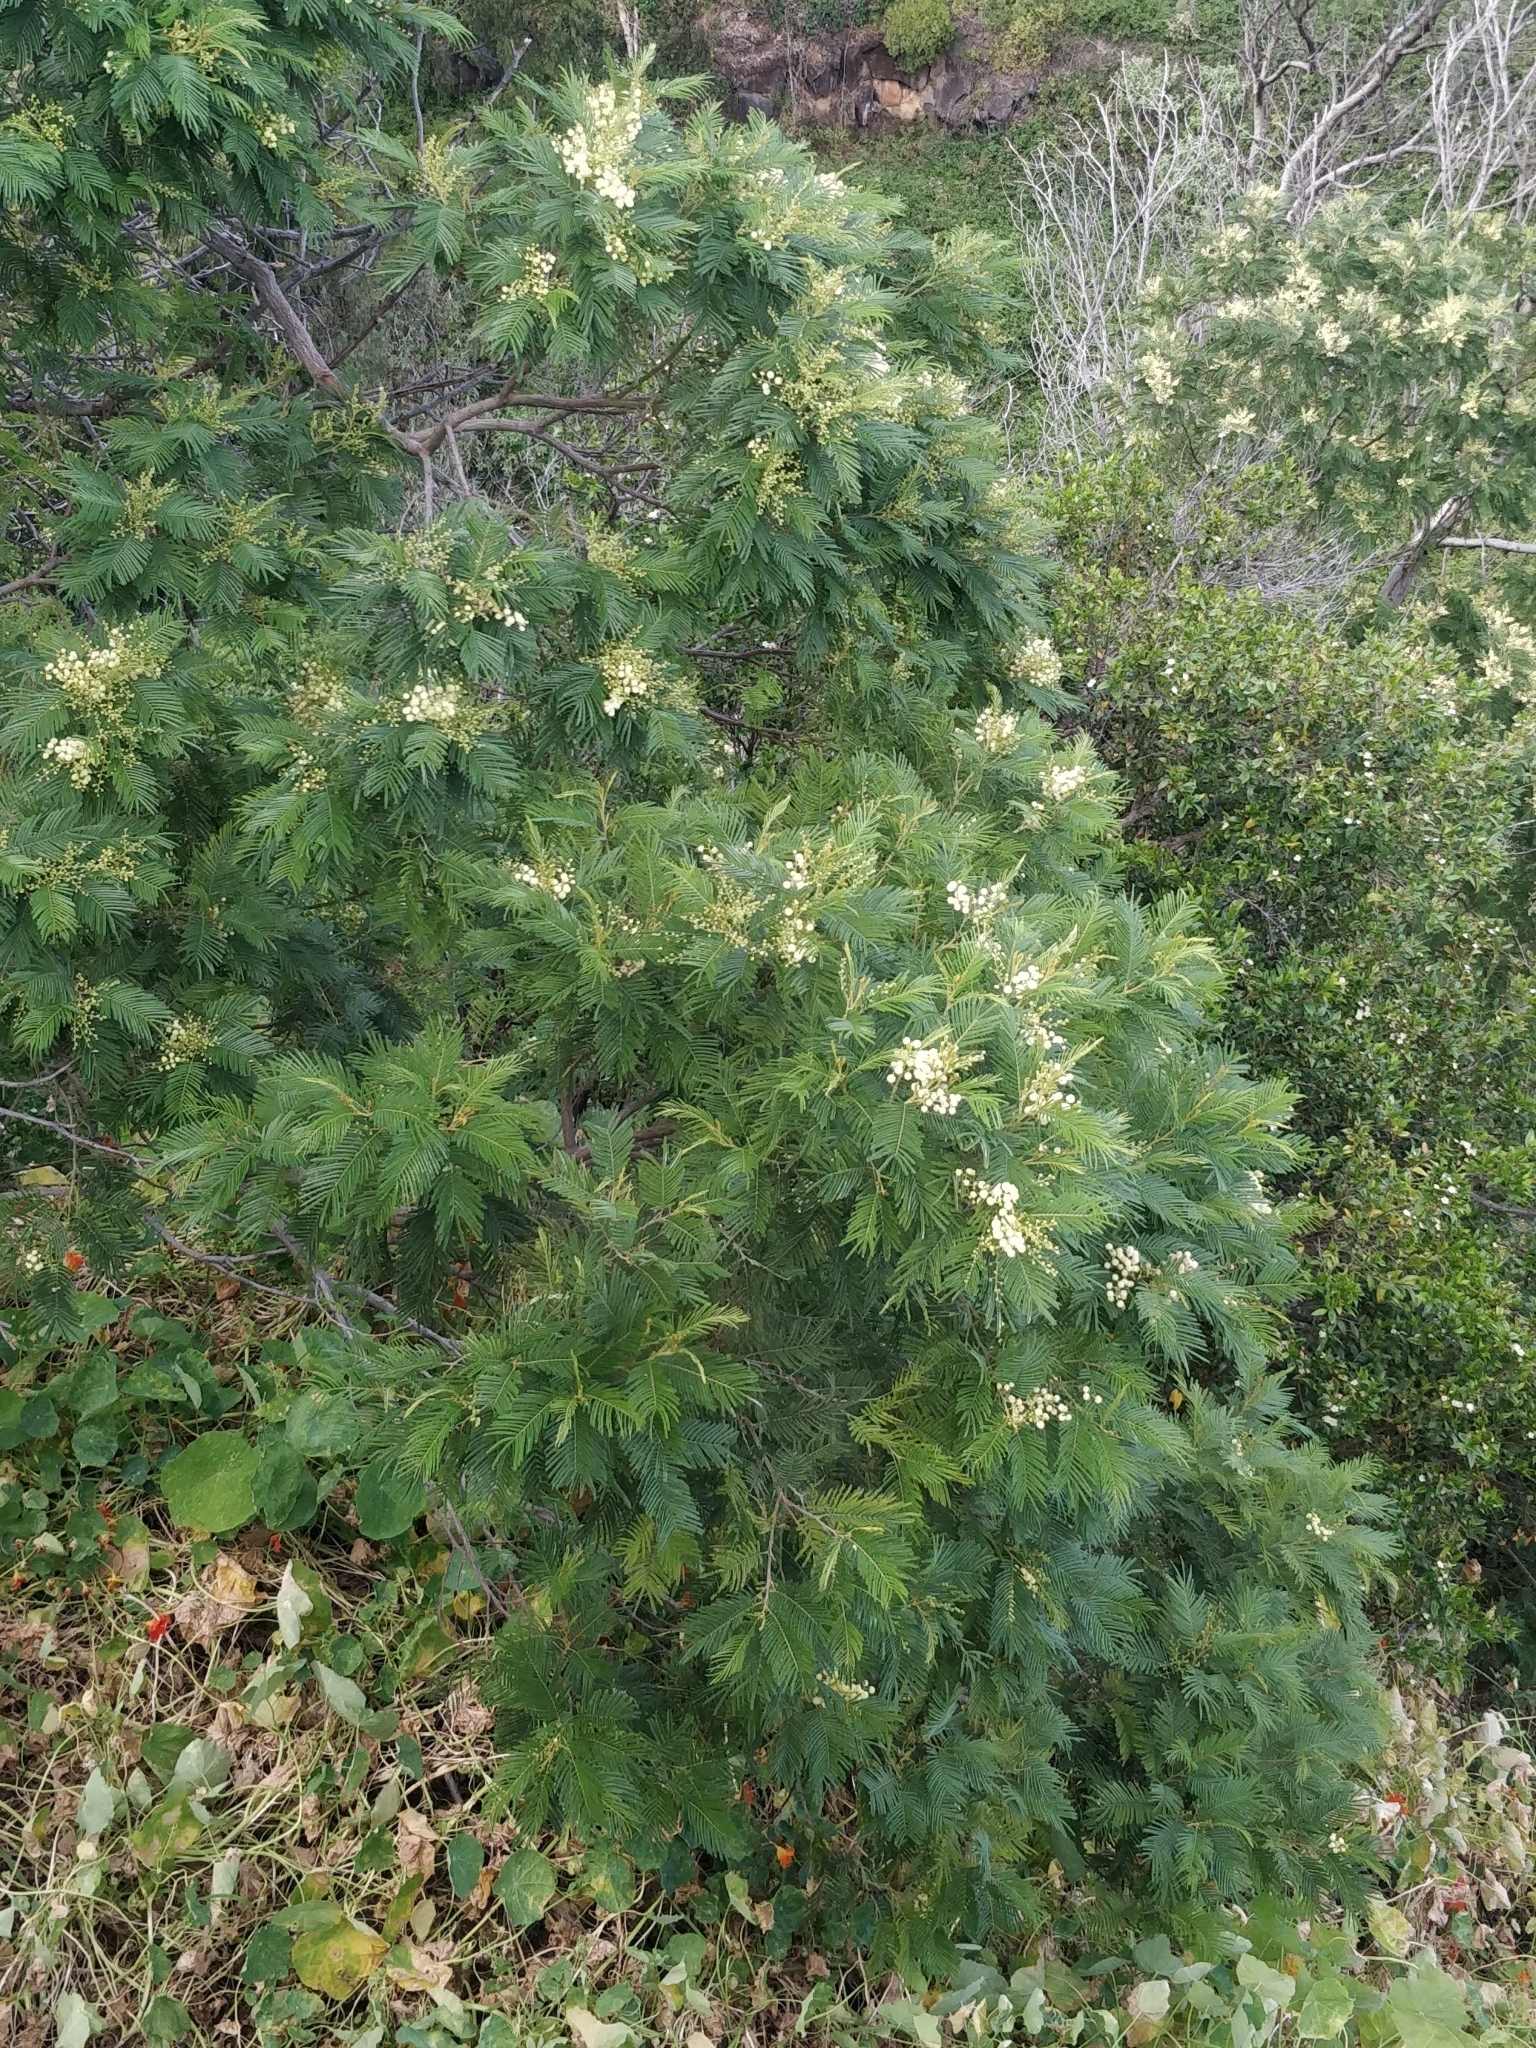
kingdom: Plantae
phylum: Tracheophyta
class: Magnoliopsida
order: Fabales
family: Fabaceae
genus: Acacia
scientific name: Acacia mearnsii
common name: Black wattle
